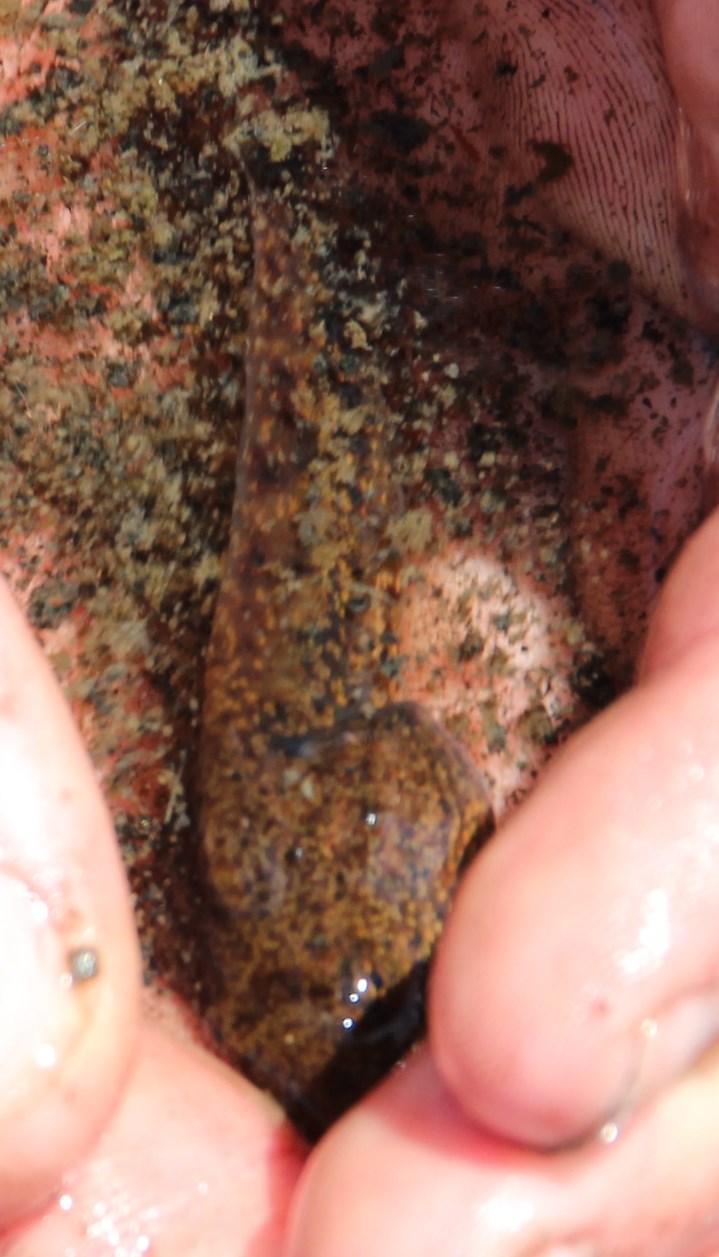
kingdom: Animalia
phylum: Chordata
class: Amphibia
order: Anura
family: Pyxicephalidae
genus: Amietia
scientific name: Amietia fuscigula
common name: Cape rana
